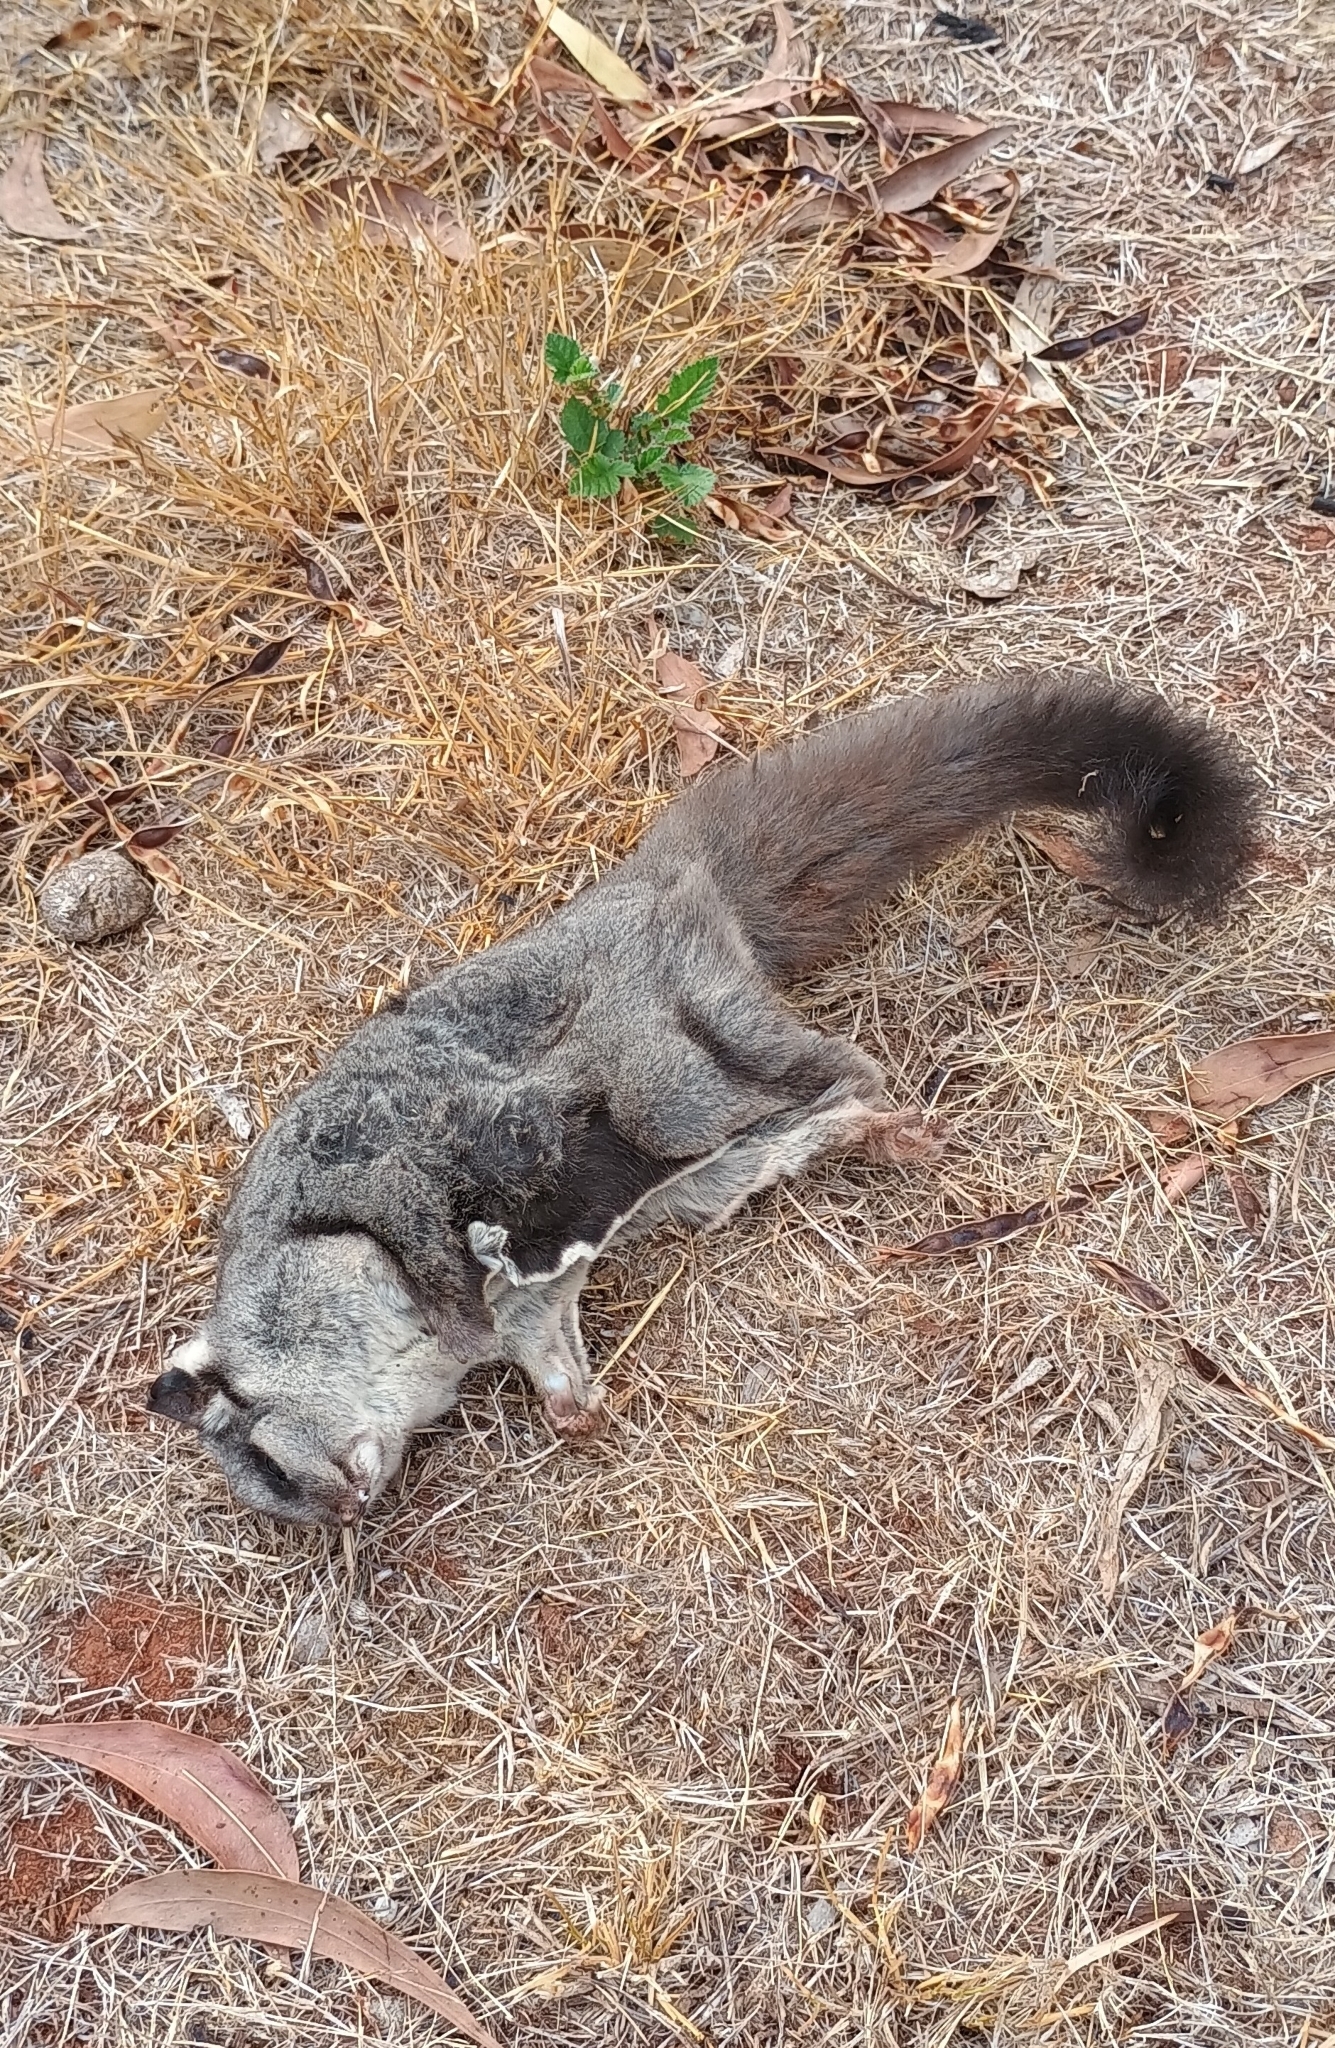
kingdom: Animalia
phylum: Chordata
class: Mammalia
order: Diprotodontia
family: Petauridae
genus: Petaurus
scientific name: Petaurus breviceps
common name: Sugar glider
